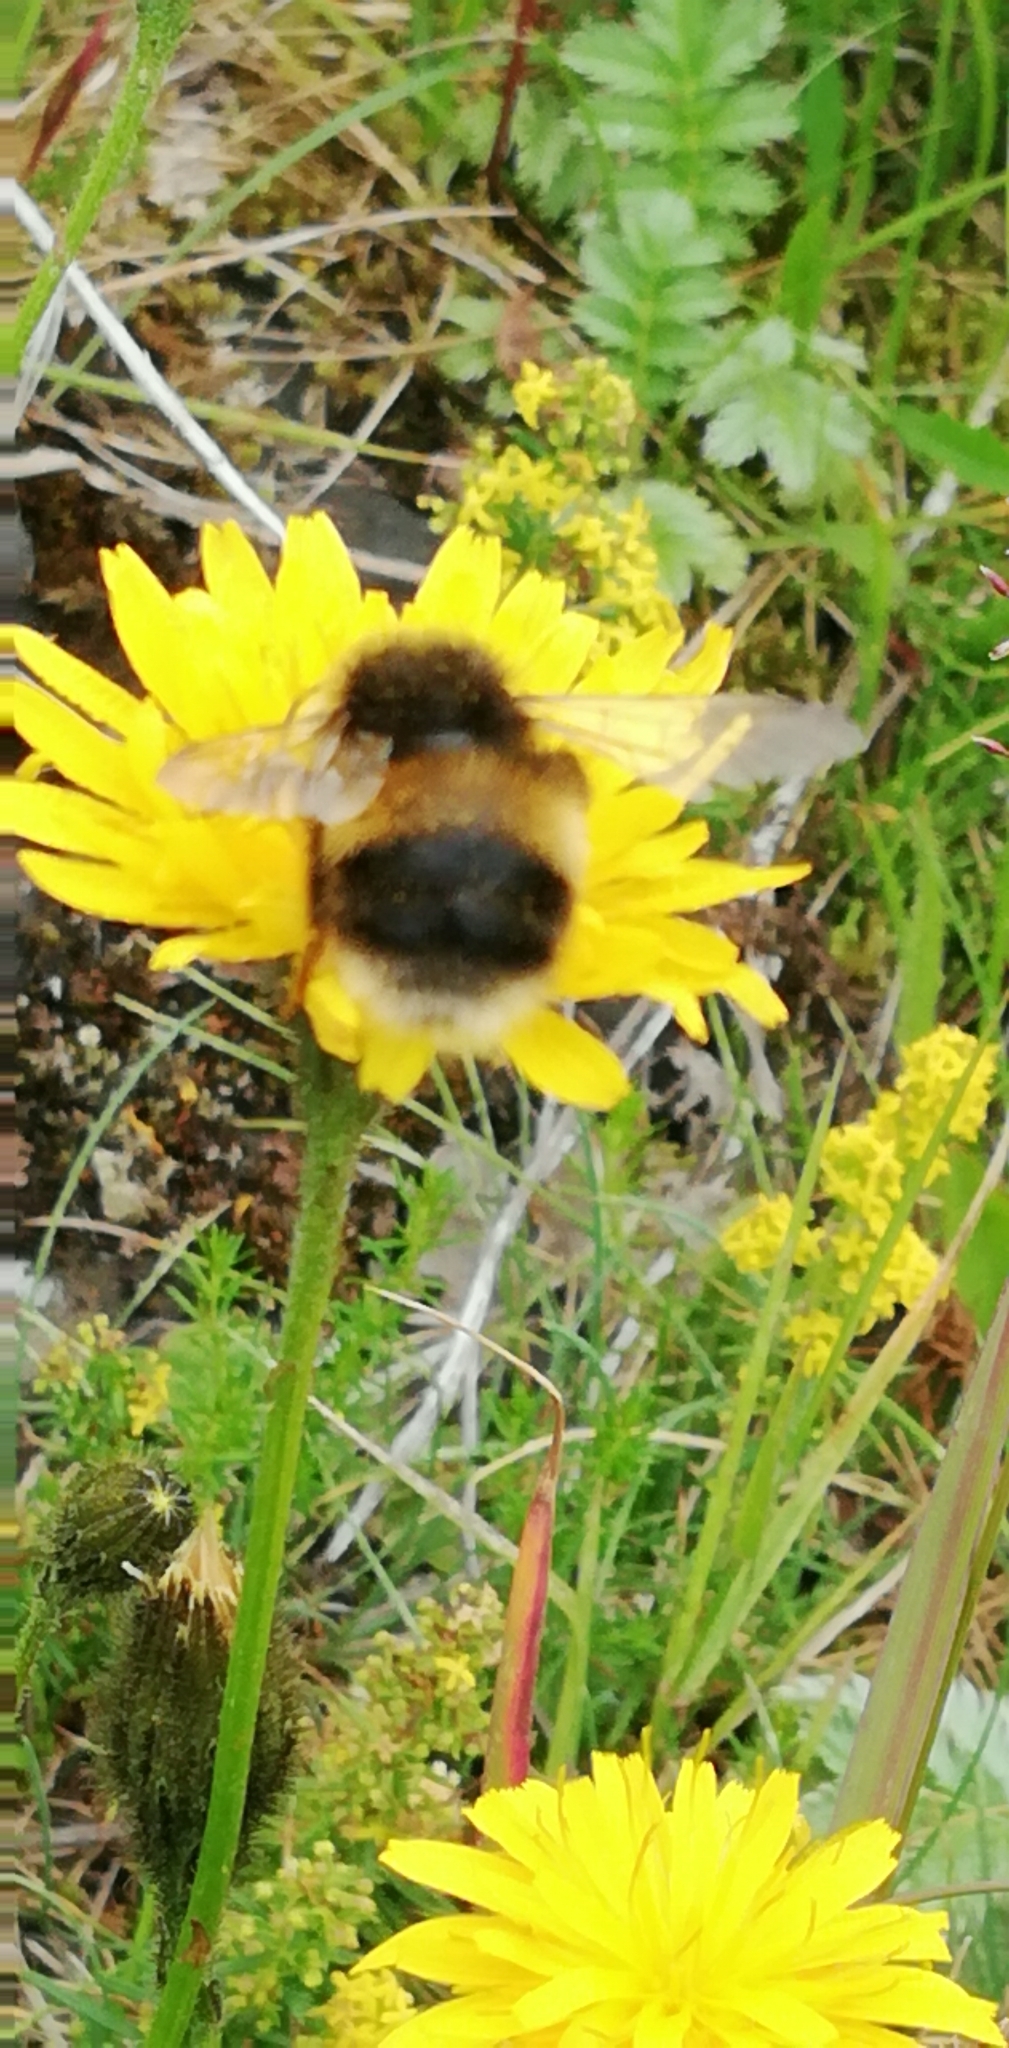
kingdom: Animalia
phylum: Arthropoda
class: Insecta
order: Hymenoptera
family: Apidae
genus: Bombus
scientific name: Bombus lucorum
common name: White-tailed bumblebee
